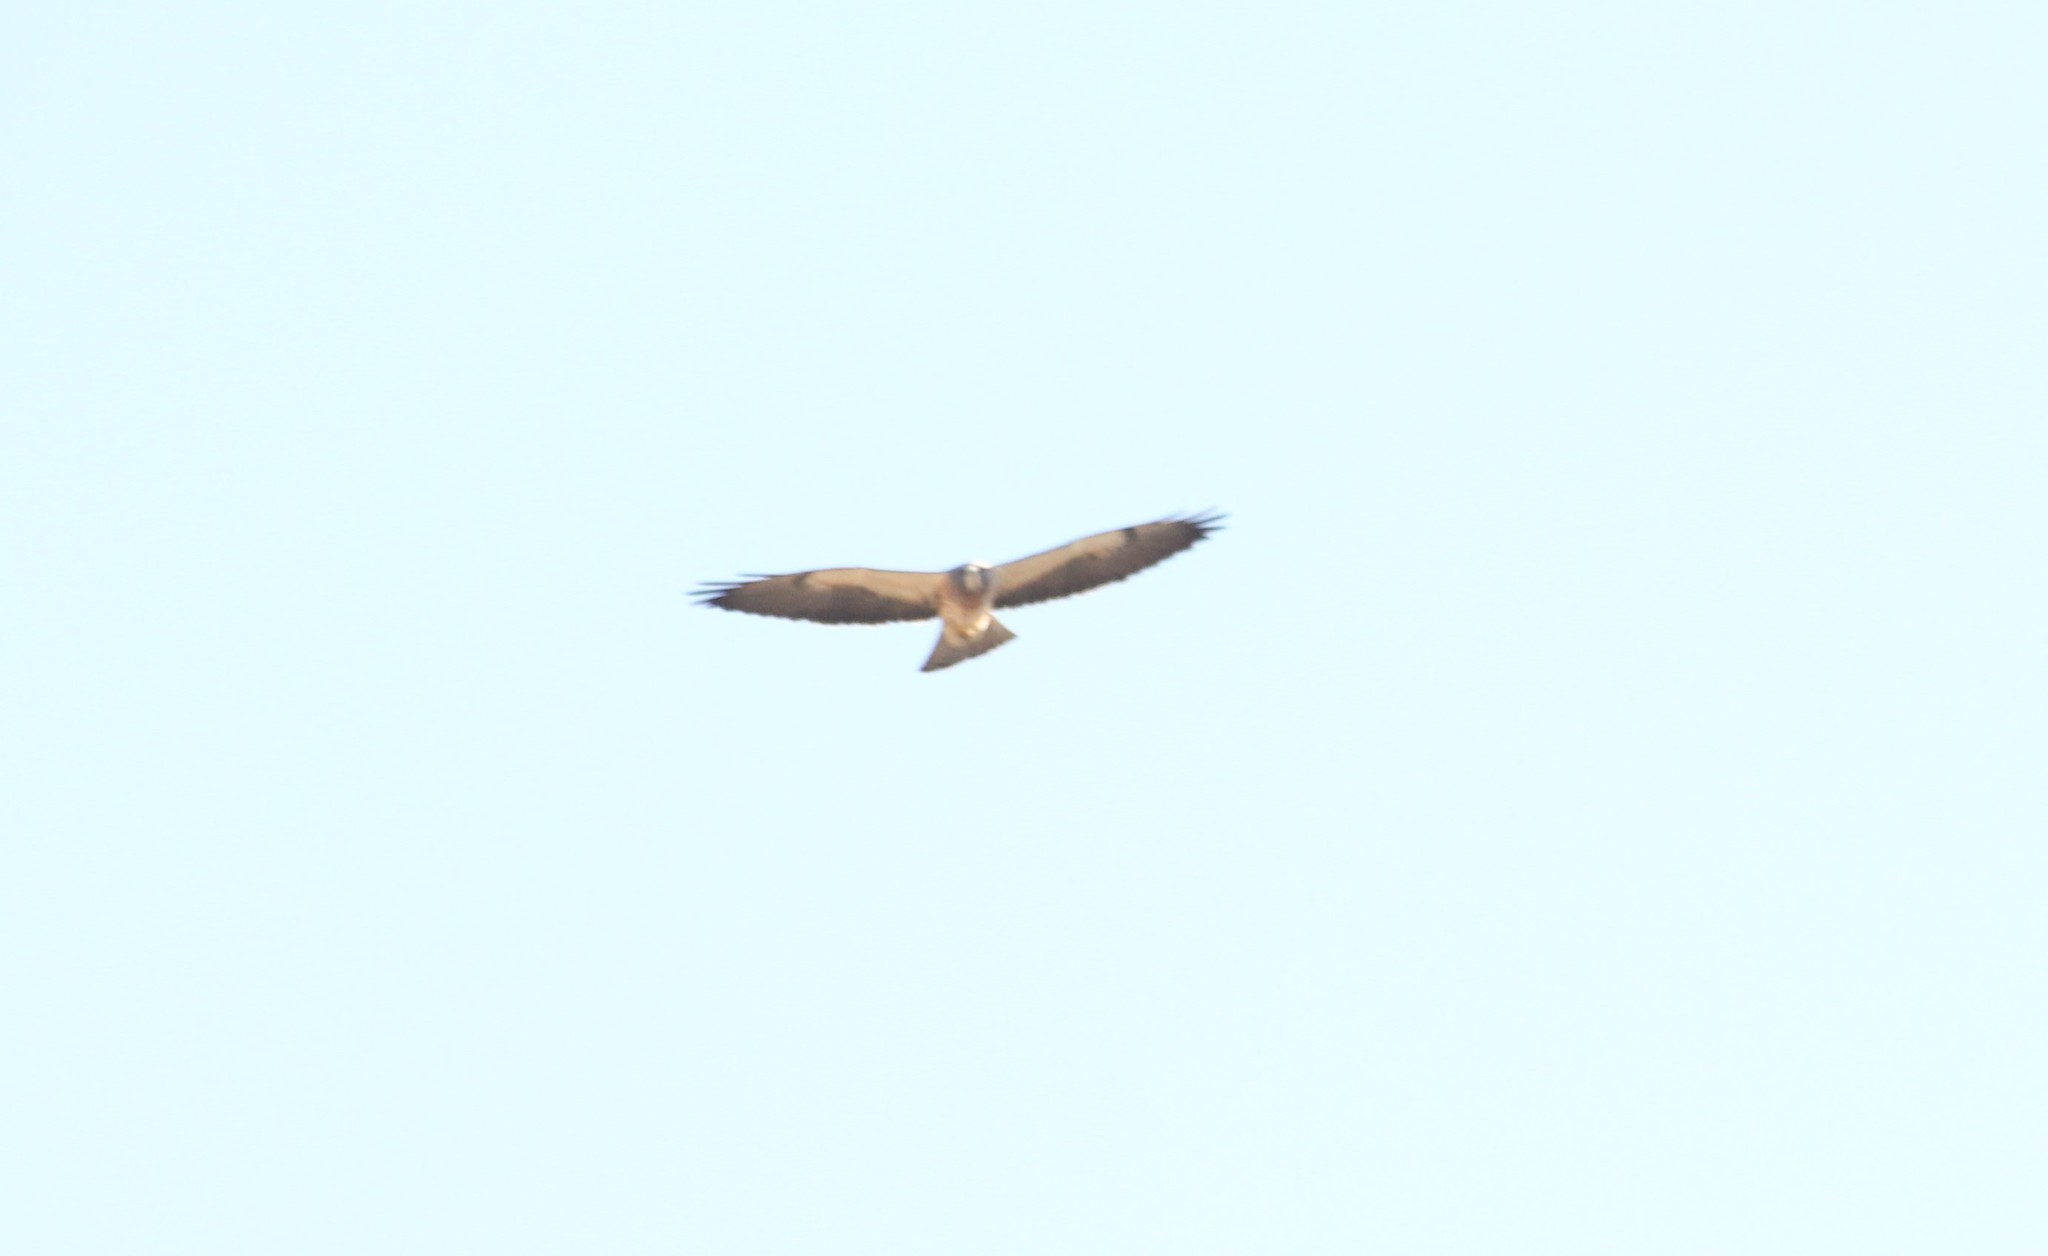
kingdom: Animalia
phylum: Chordata
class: Aves
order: Accipitriformes
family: Accipitridae
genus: Buteo
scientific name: Buteo swainsoni
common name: Swainson's hawk
